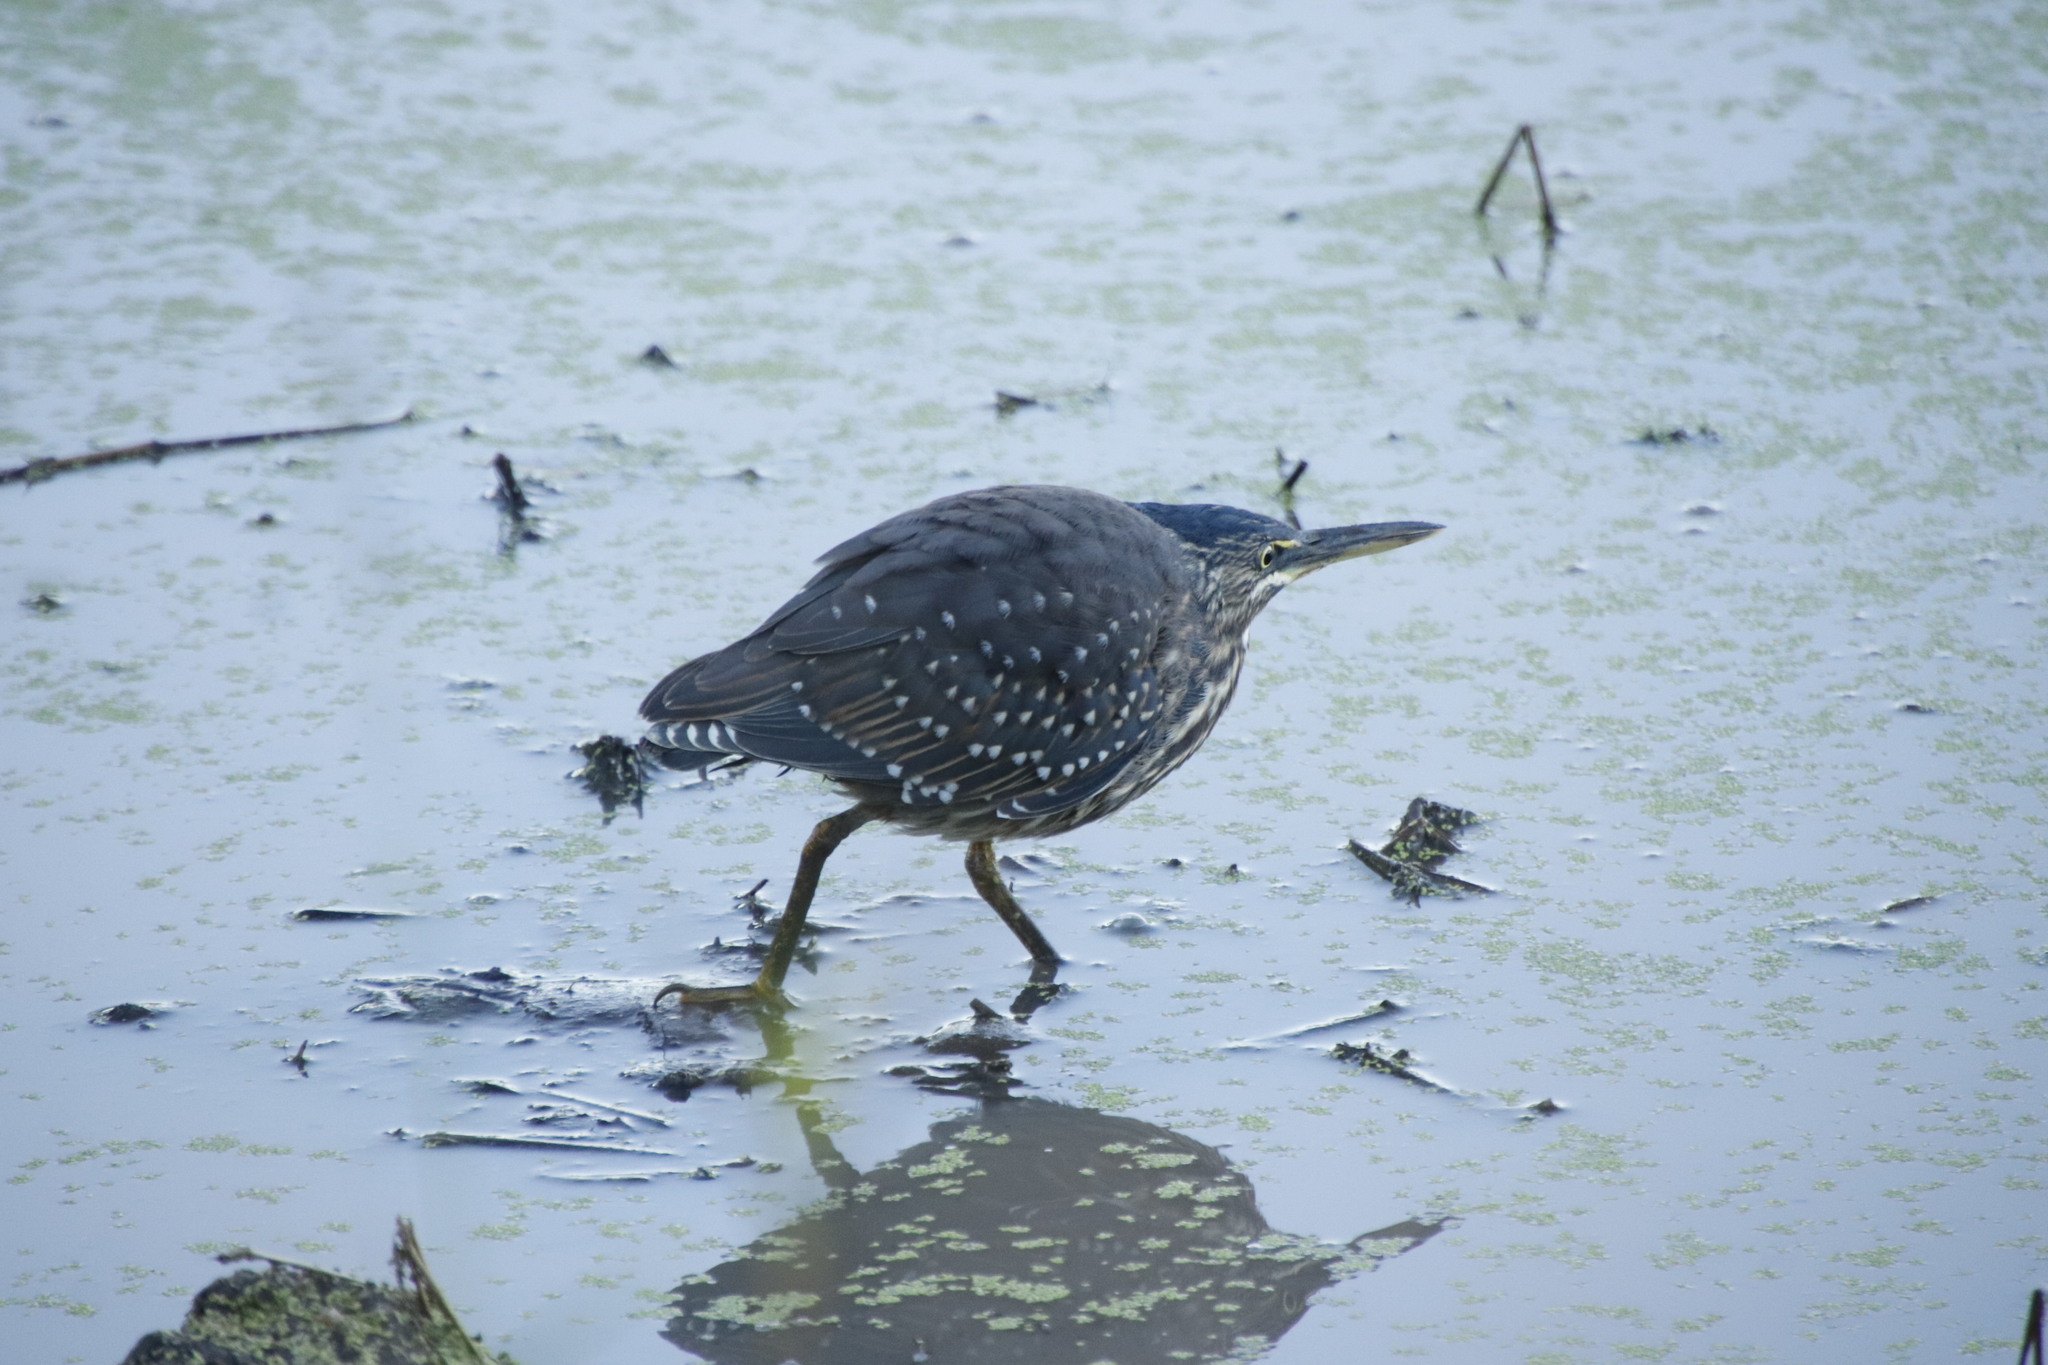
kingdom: Animalia
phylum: Chordata
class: Aves
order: Pelecaniformes
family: Ardeidae
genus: Butorides
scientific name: Butorides striata
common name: Striated heron
